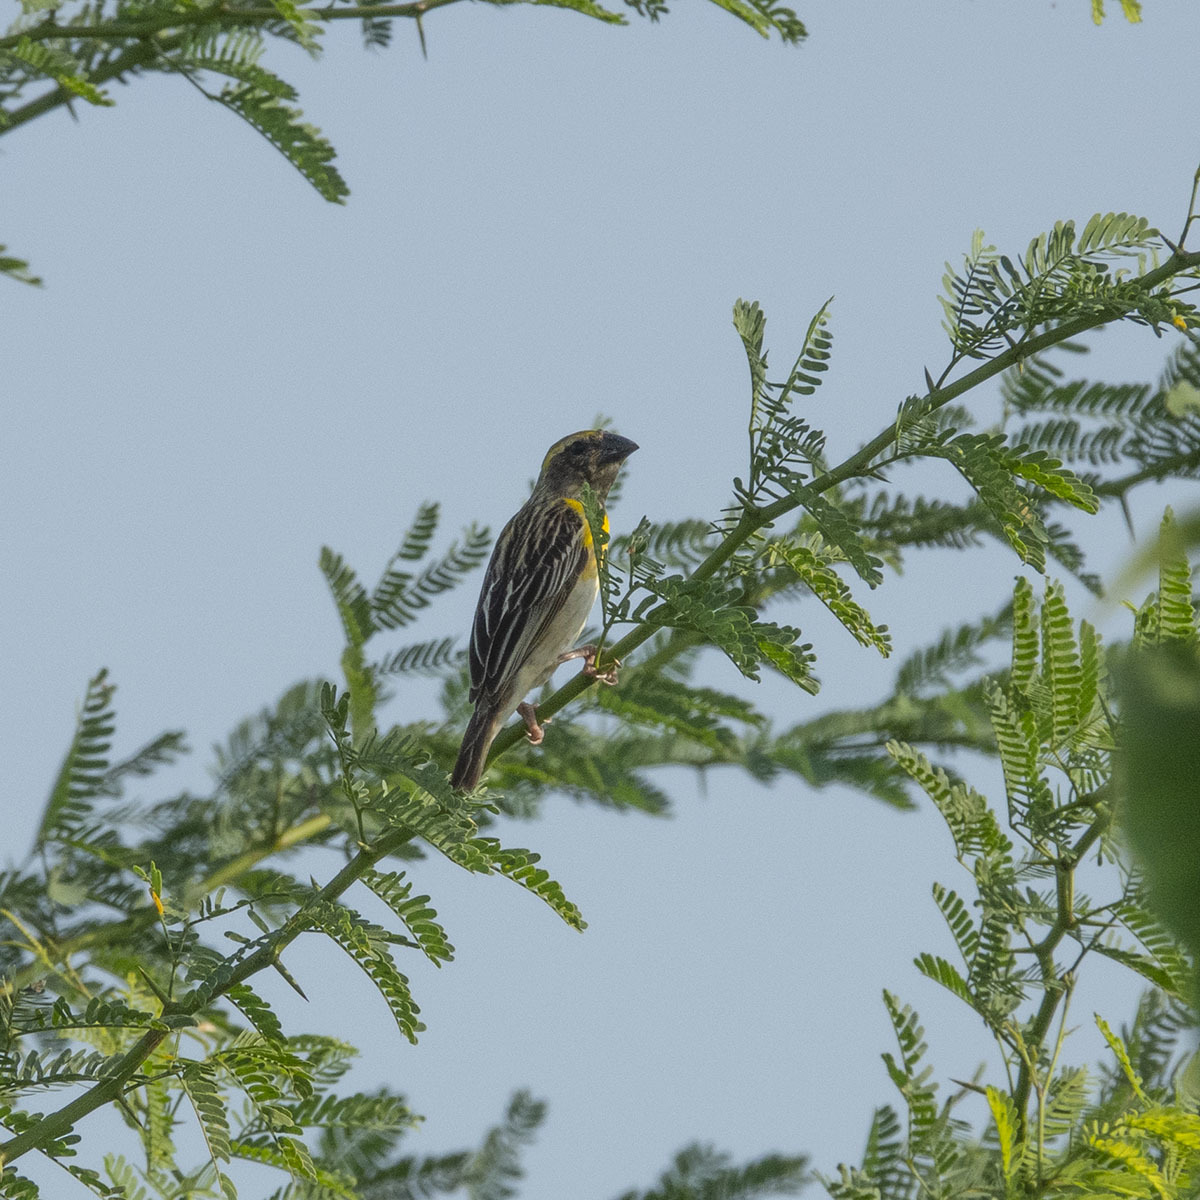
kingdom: Animalia
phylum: Chordata
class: Aves
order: Passeriformes
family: Ploceidae
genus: Ploceus
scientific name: Ploceus philippinus
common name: Baya weaver
